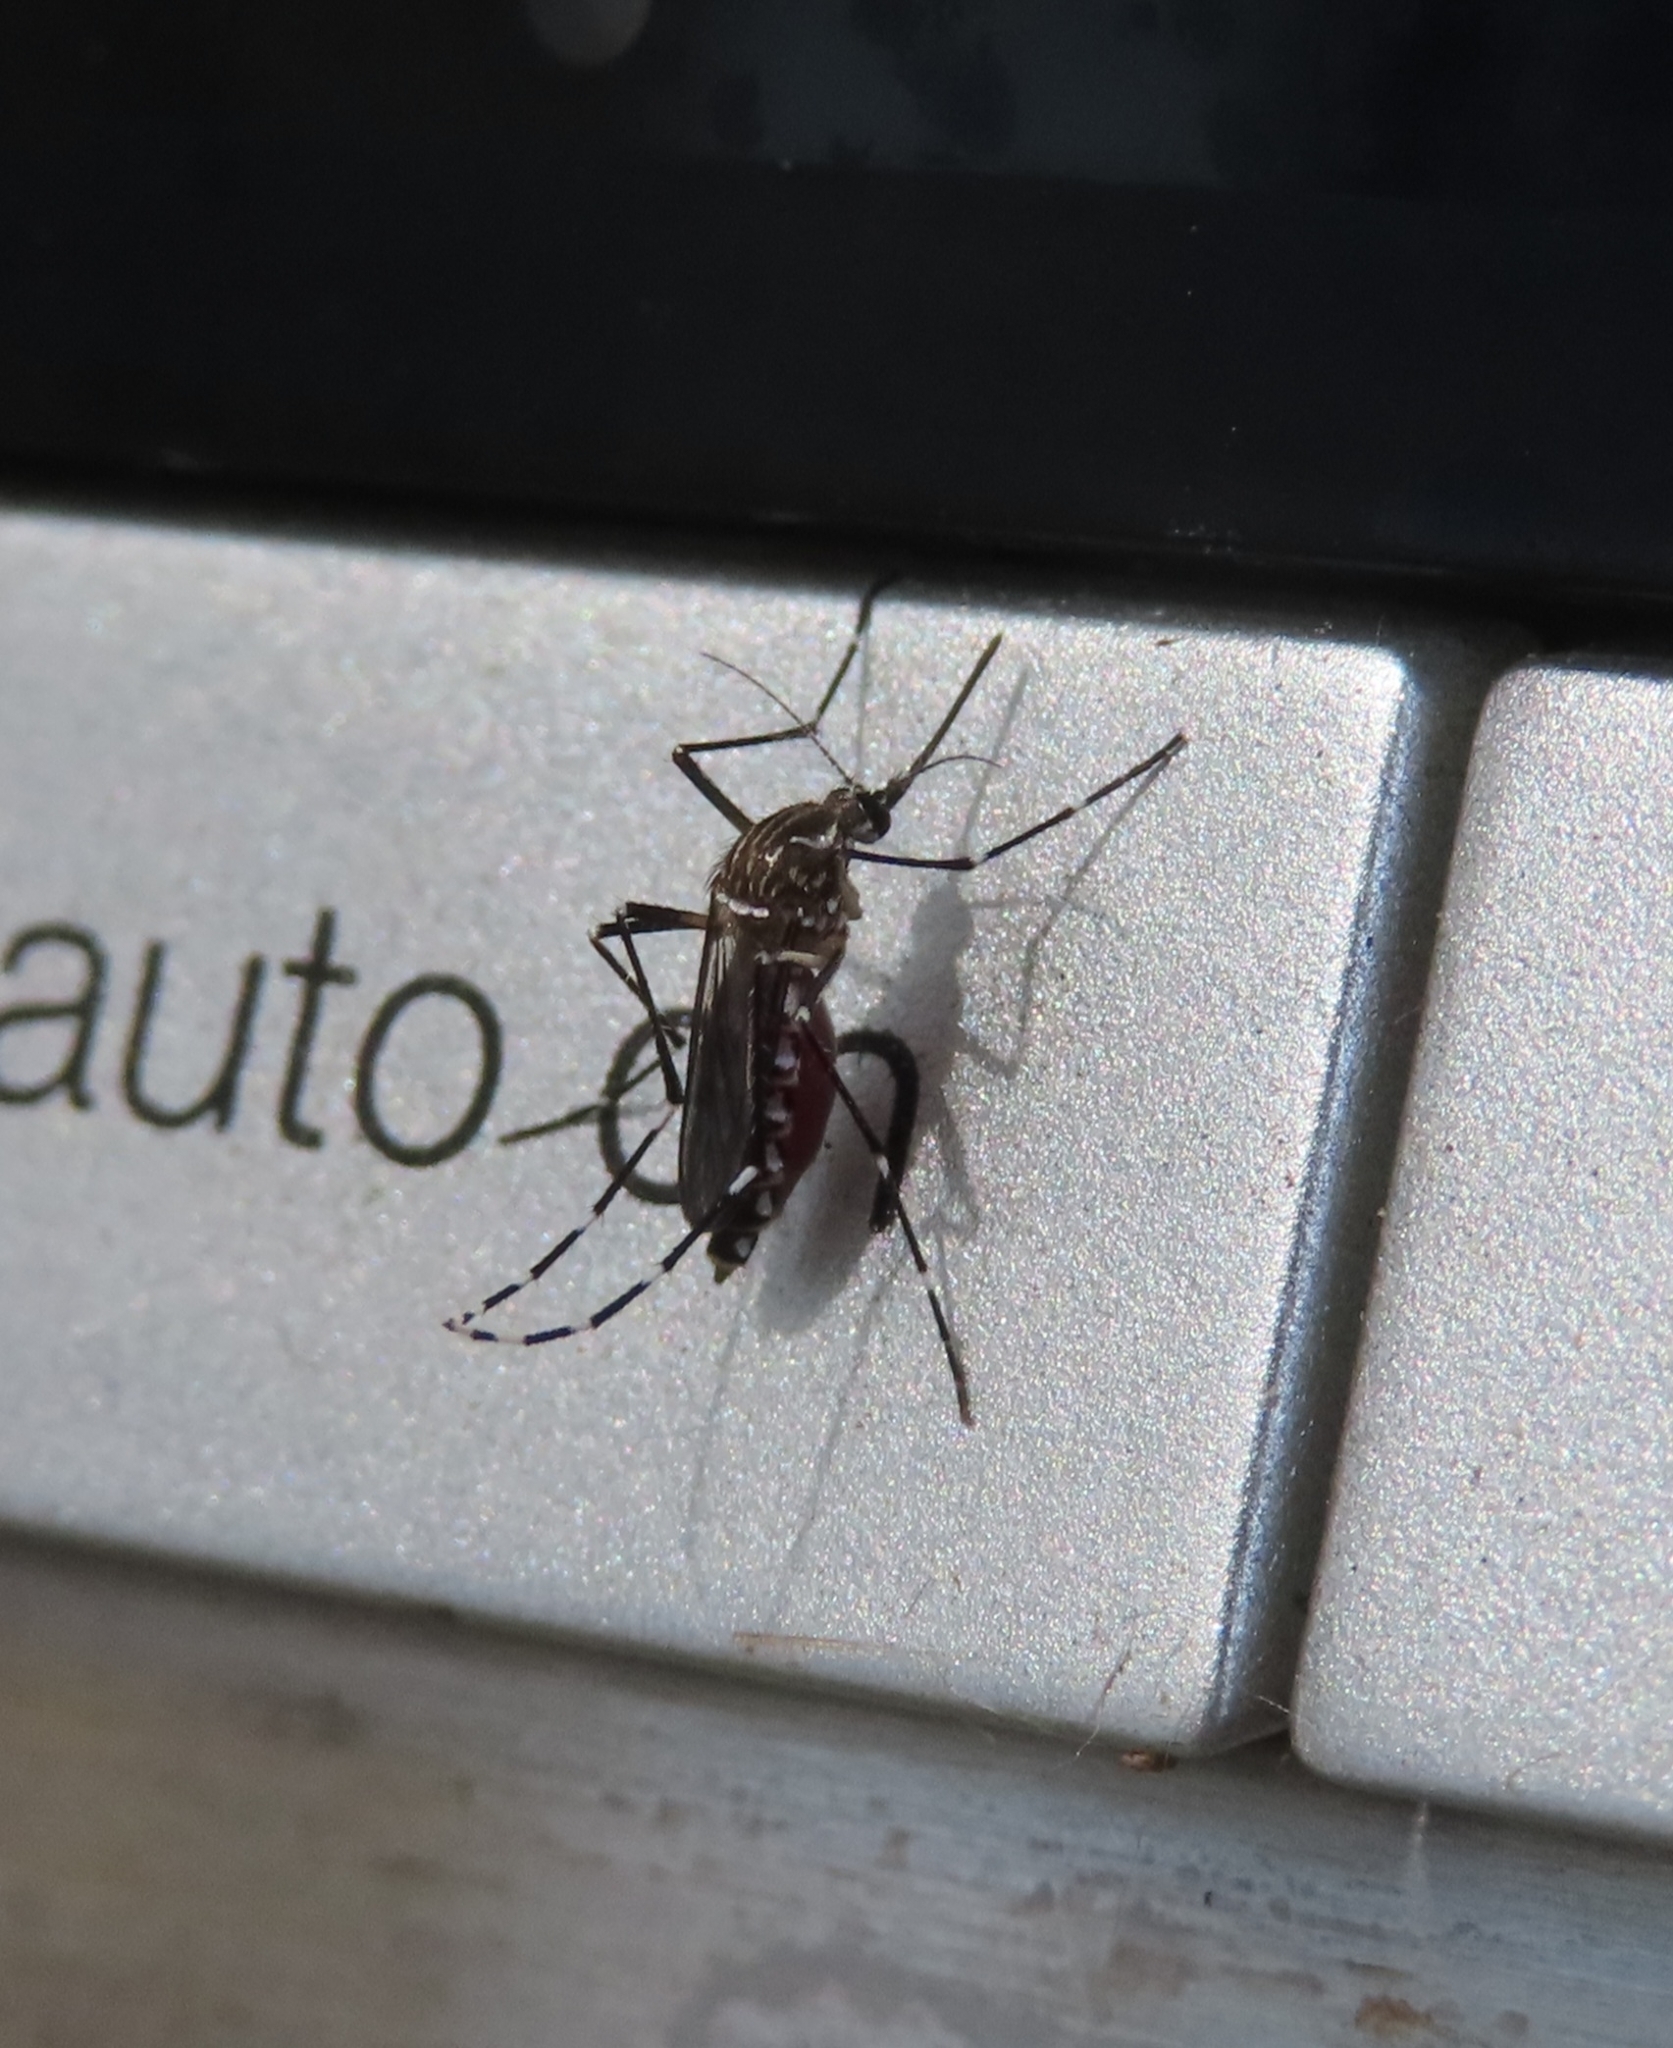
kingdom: Animalia
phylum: Arthropoda
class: Insecta
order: Diptera
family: Culicidae
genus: Aedes
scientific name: Aedes aegypti
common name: Yellow fever mosquito
